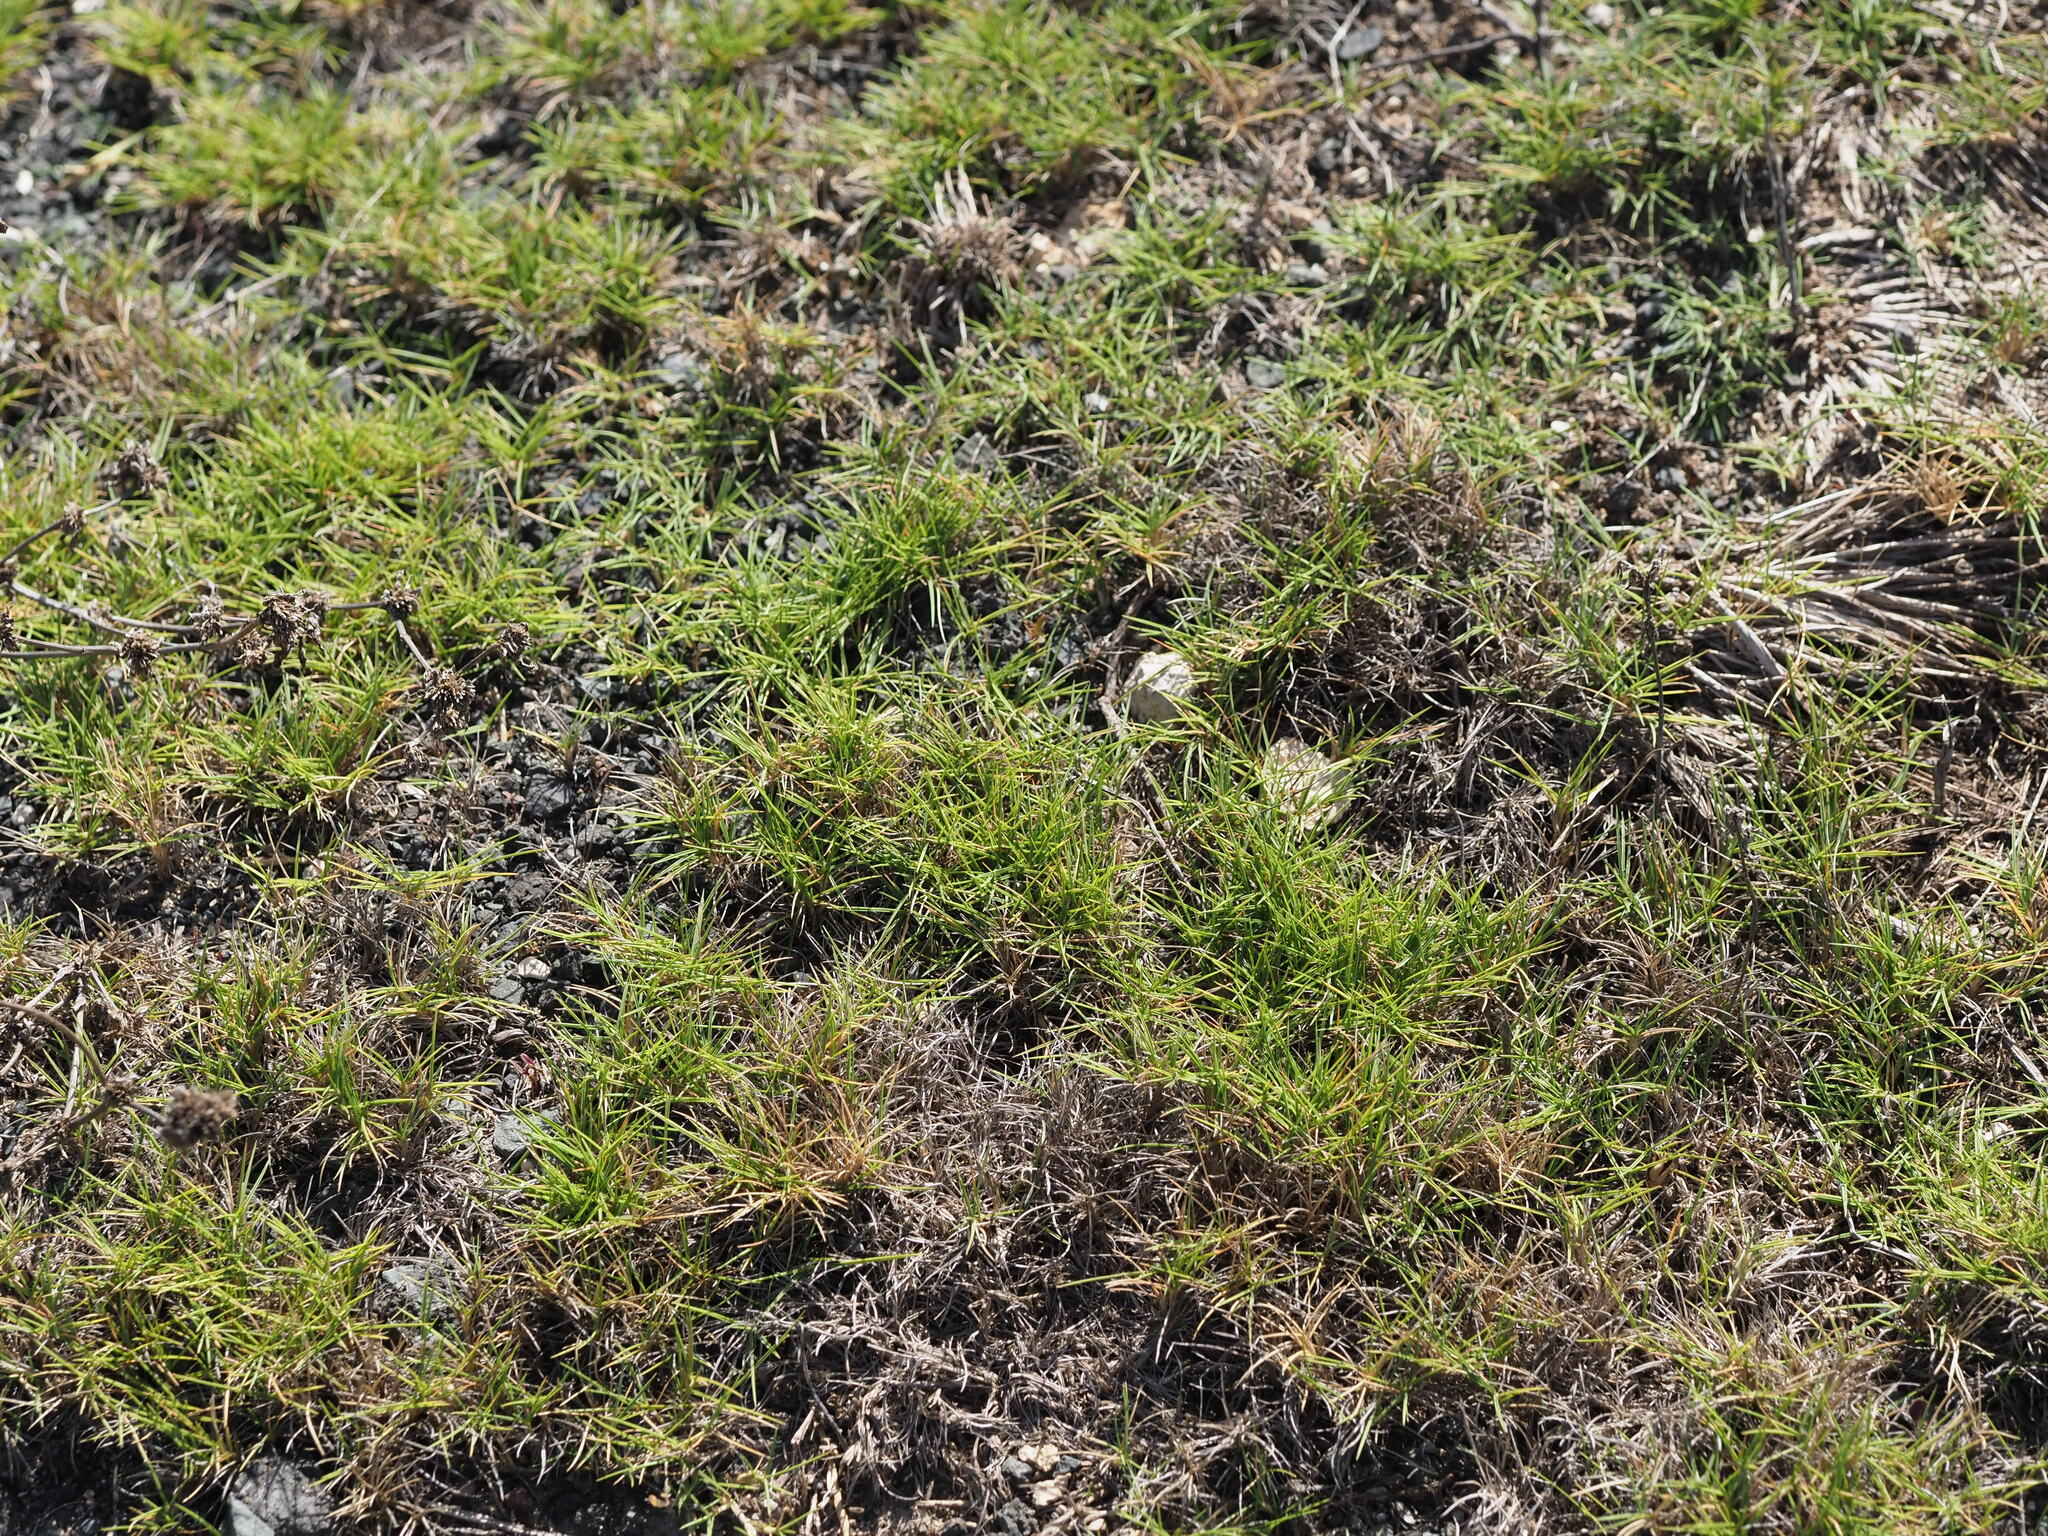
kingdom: Plantae
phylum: Tracheophyta
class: Liliopsida
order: Poales
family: Poaceae
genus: Zoysia
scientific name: Zoysia matrella
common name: Manila grass
